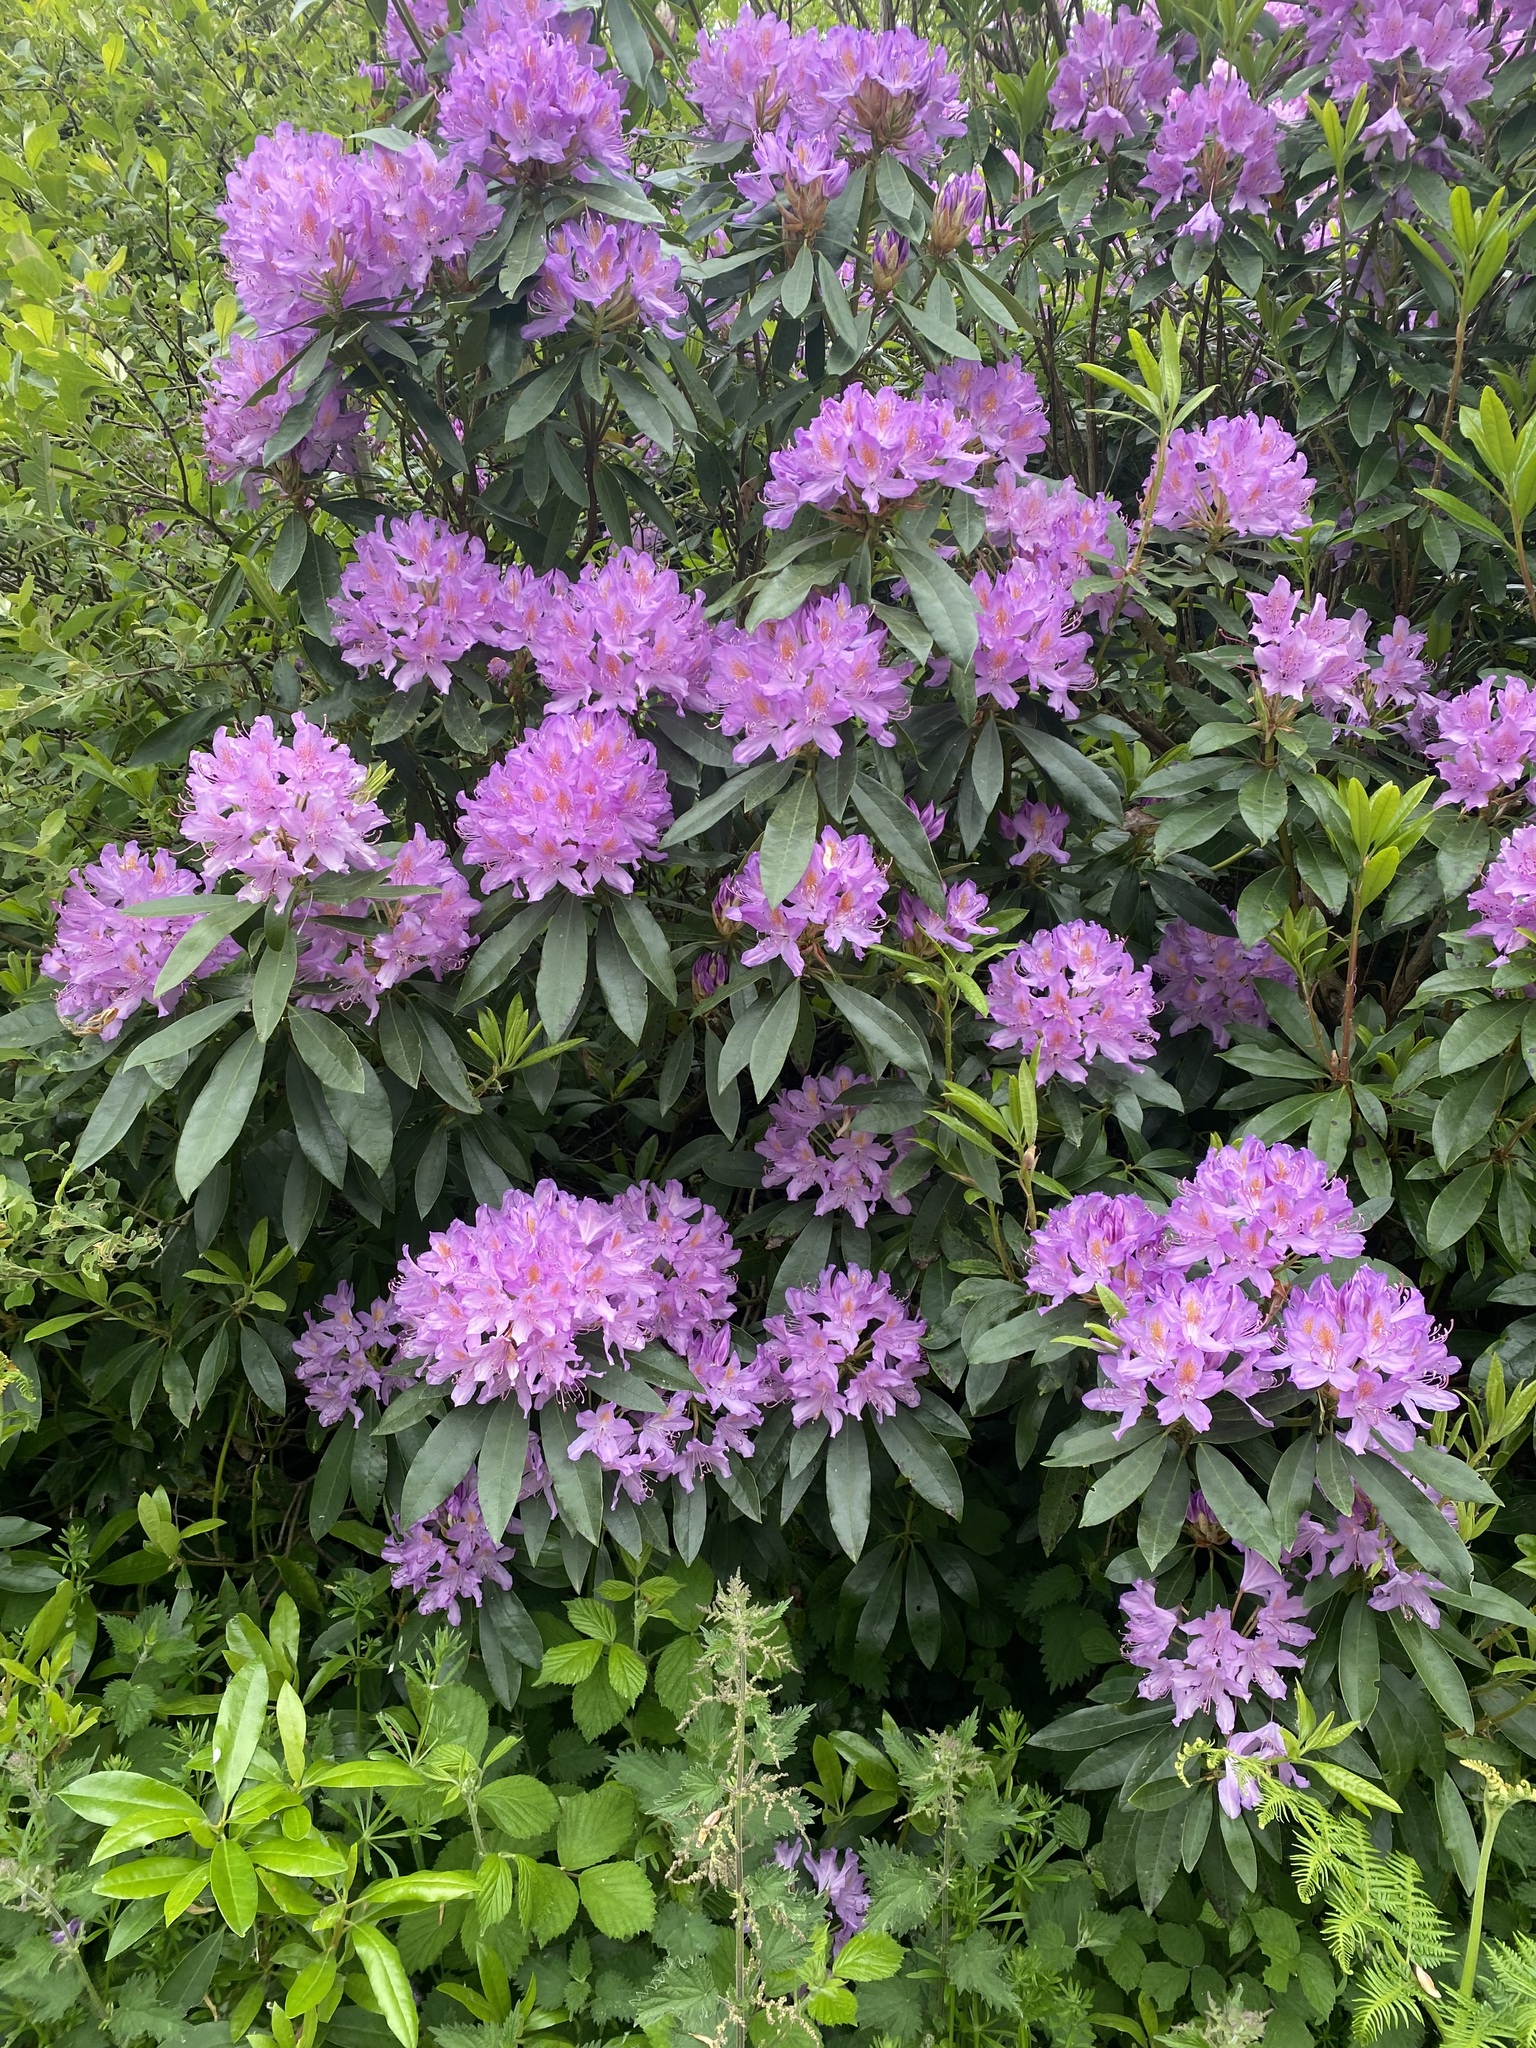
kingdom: Plantae
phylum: Tracheophyta
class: Magnoliopsida
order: Ericales
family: Ericaceae
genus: Rhododendron
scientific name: Rhododendron ponticum
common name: Rhododendron
